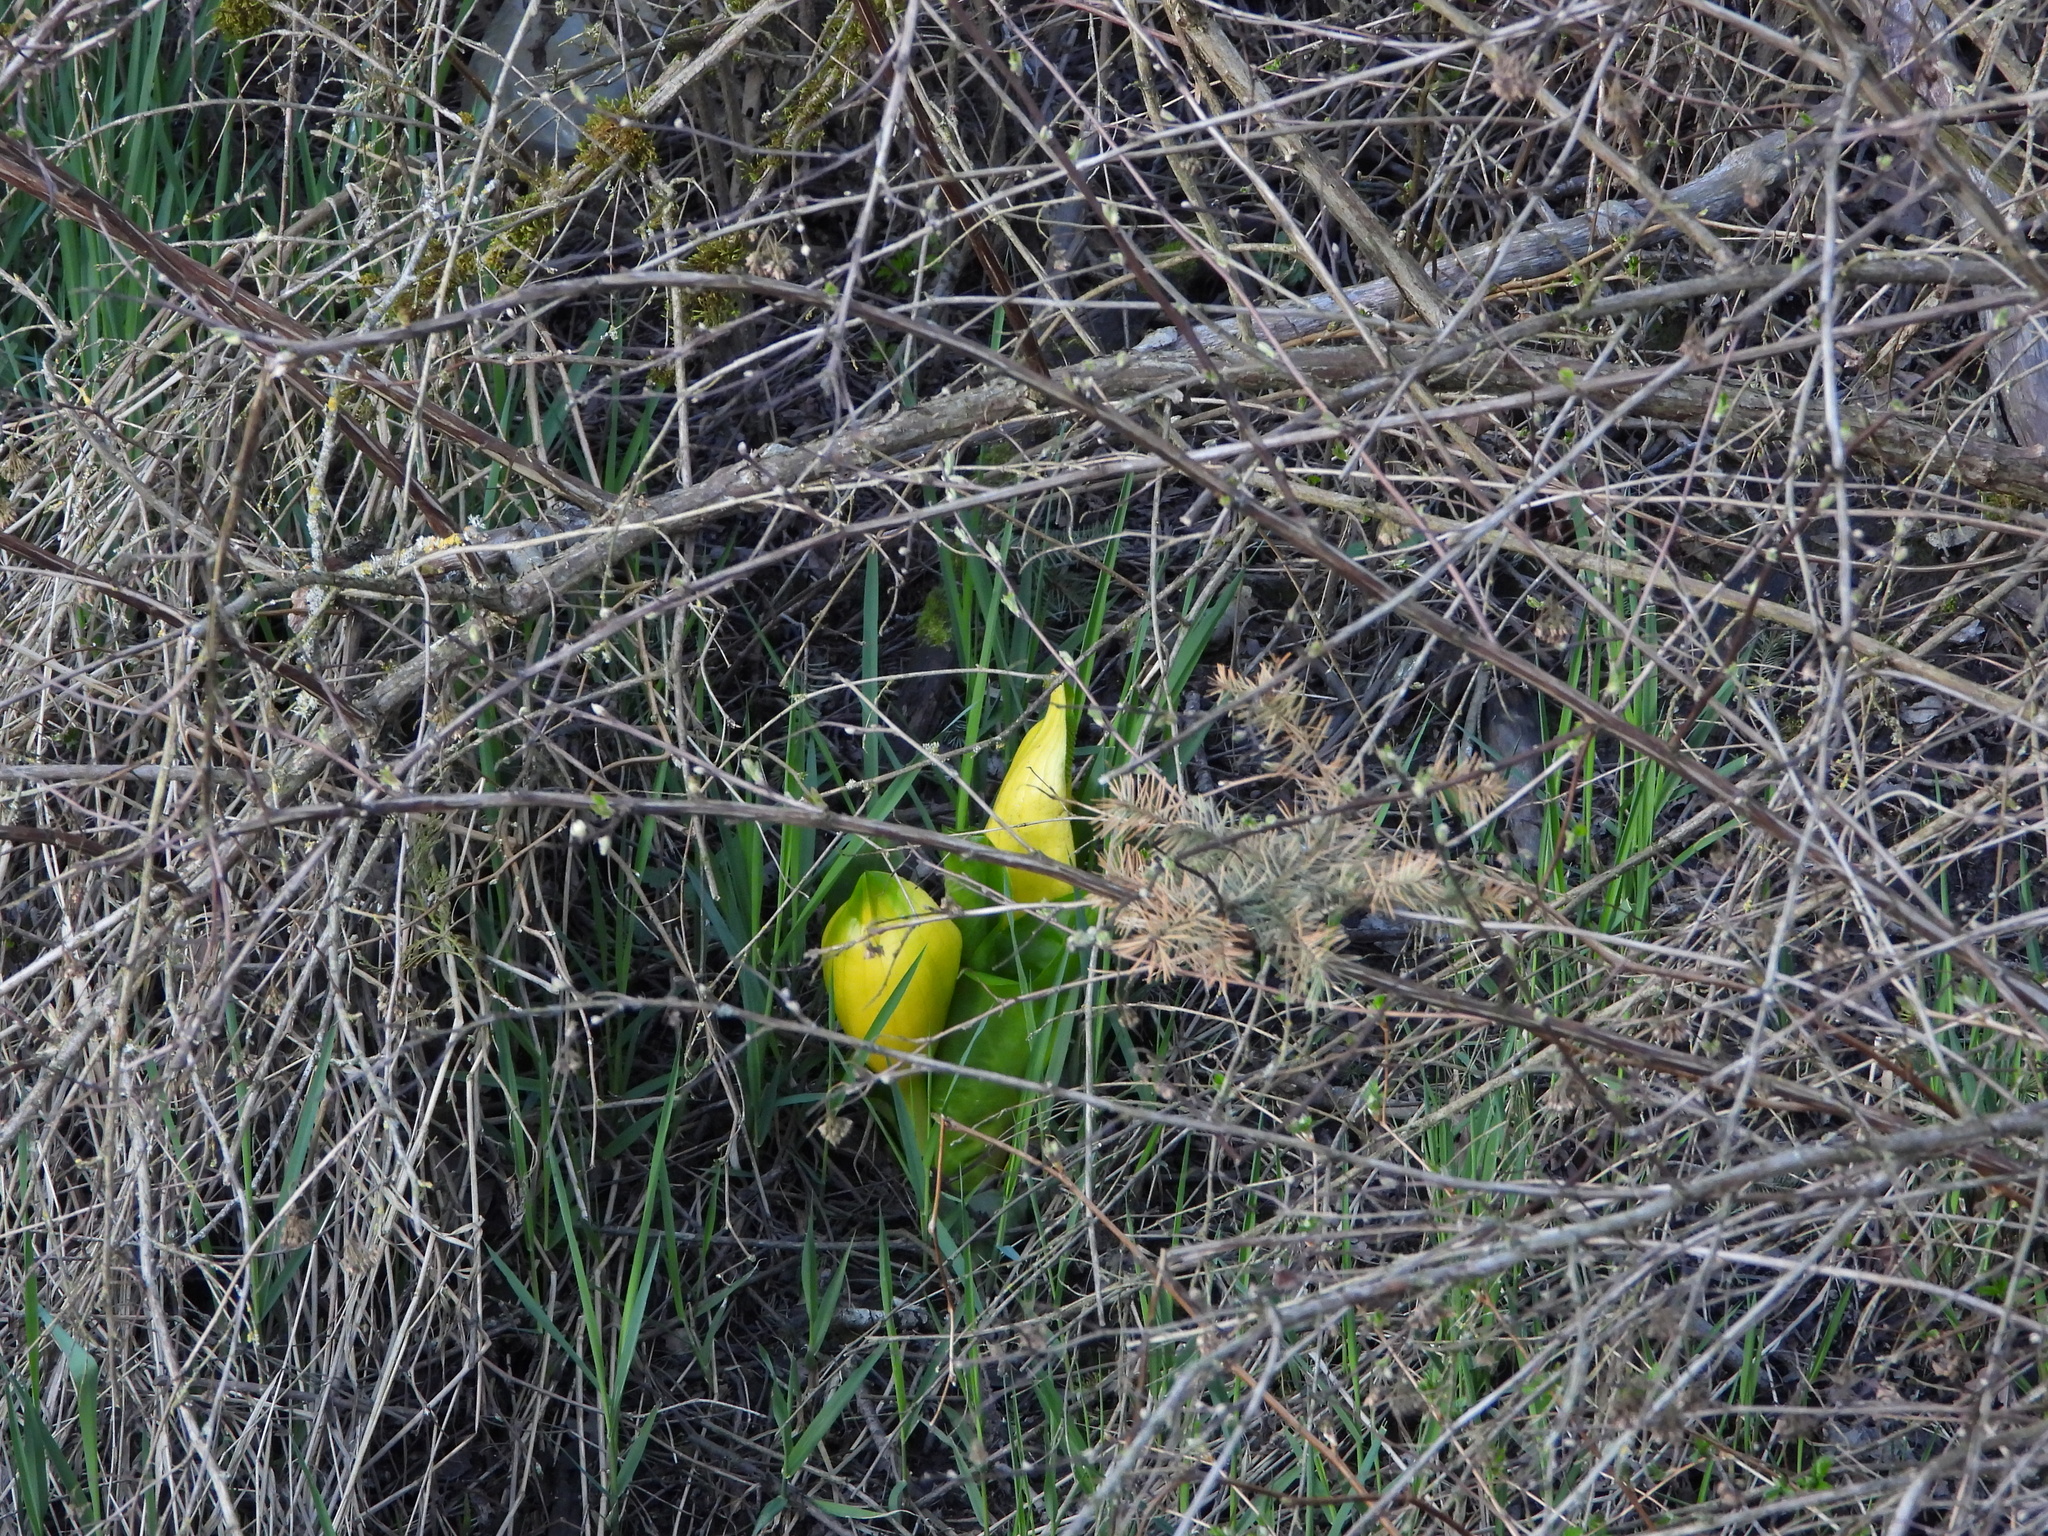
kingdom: Plantae
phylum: Tracheophyta
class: Liliopsida
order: Alismatales
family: Araceae
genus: Lysichiton
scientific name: Lysichiton americanus
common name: American skunk cabbage
